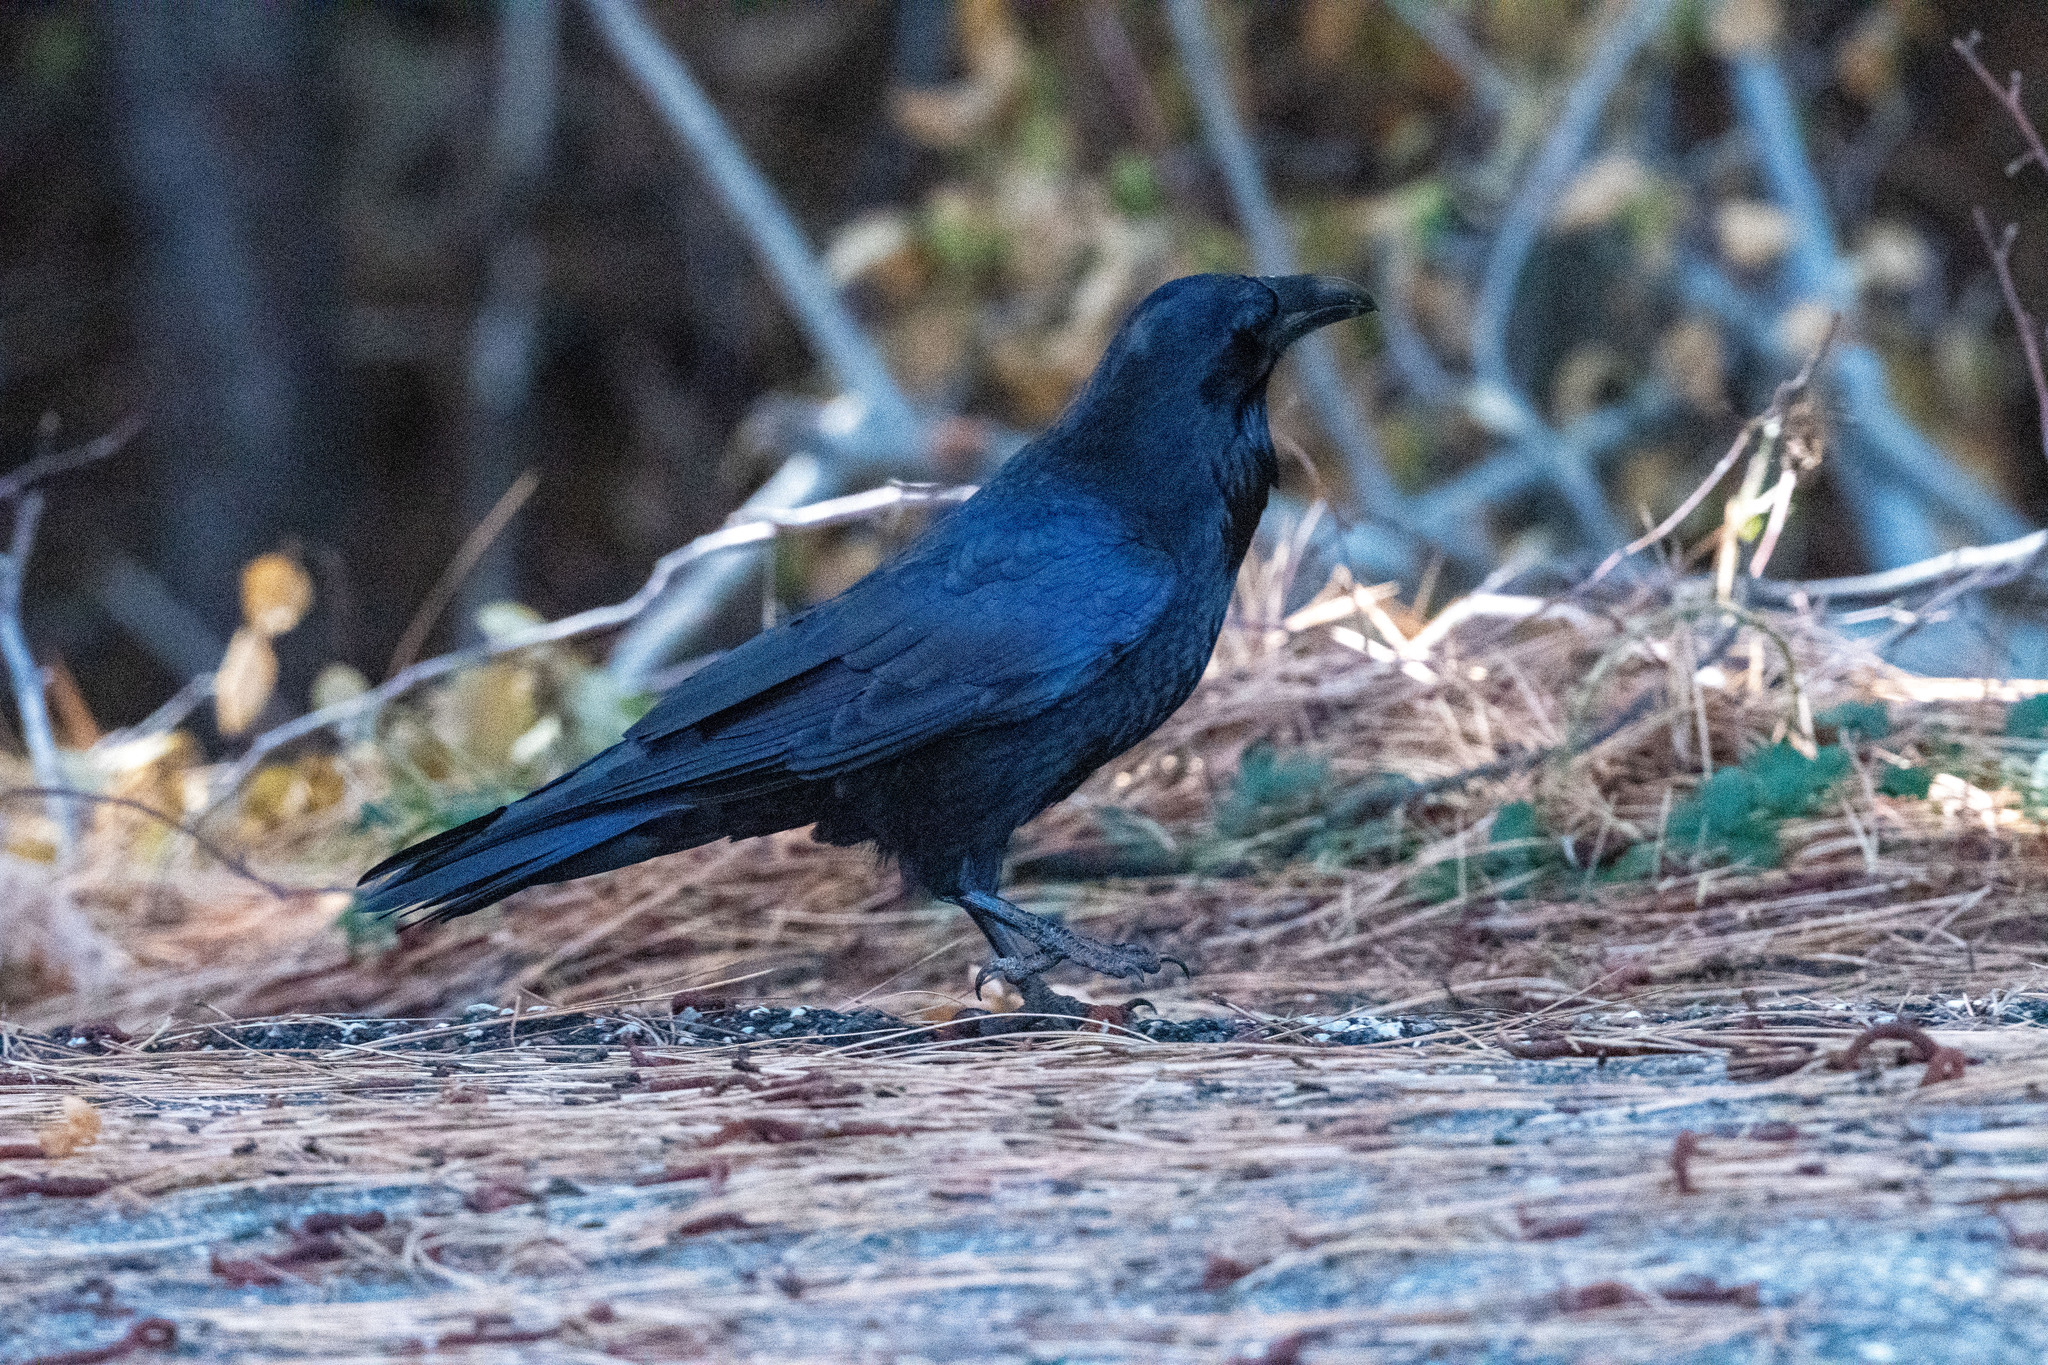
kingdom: Animalia
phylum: Chordata
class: Aves
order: Passeriformes
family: Corvidae
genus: Corvus
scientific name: Corvus corax
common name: Common raven
